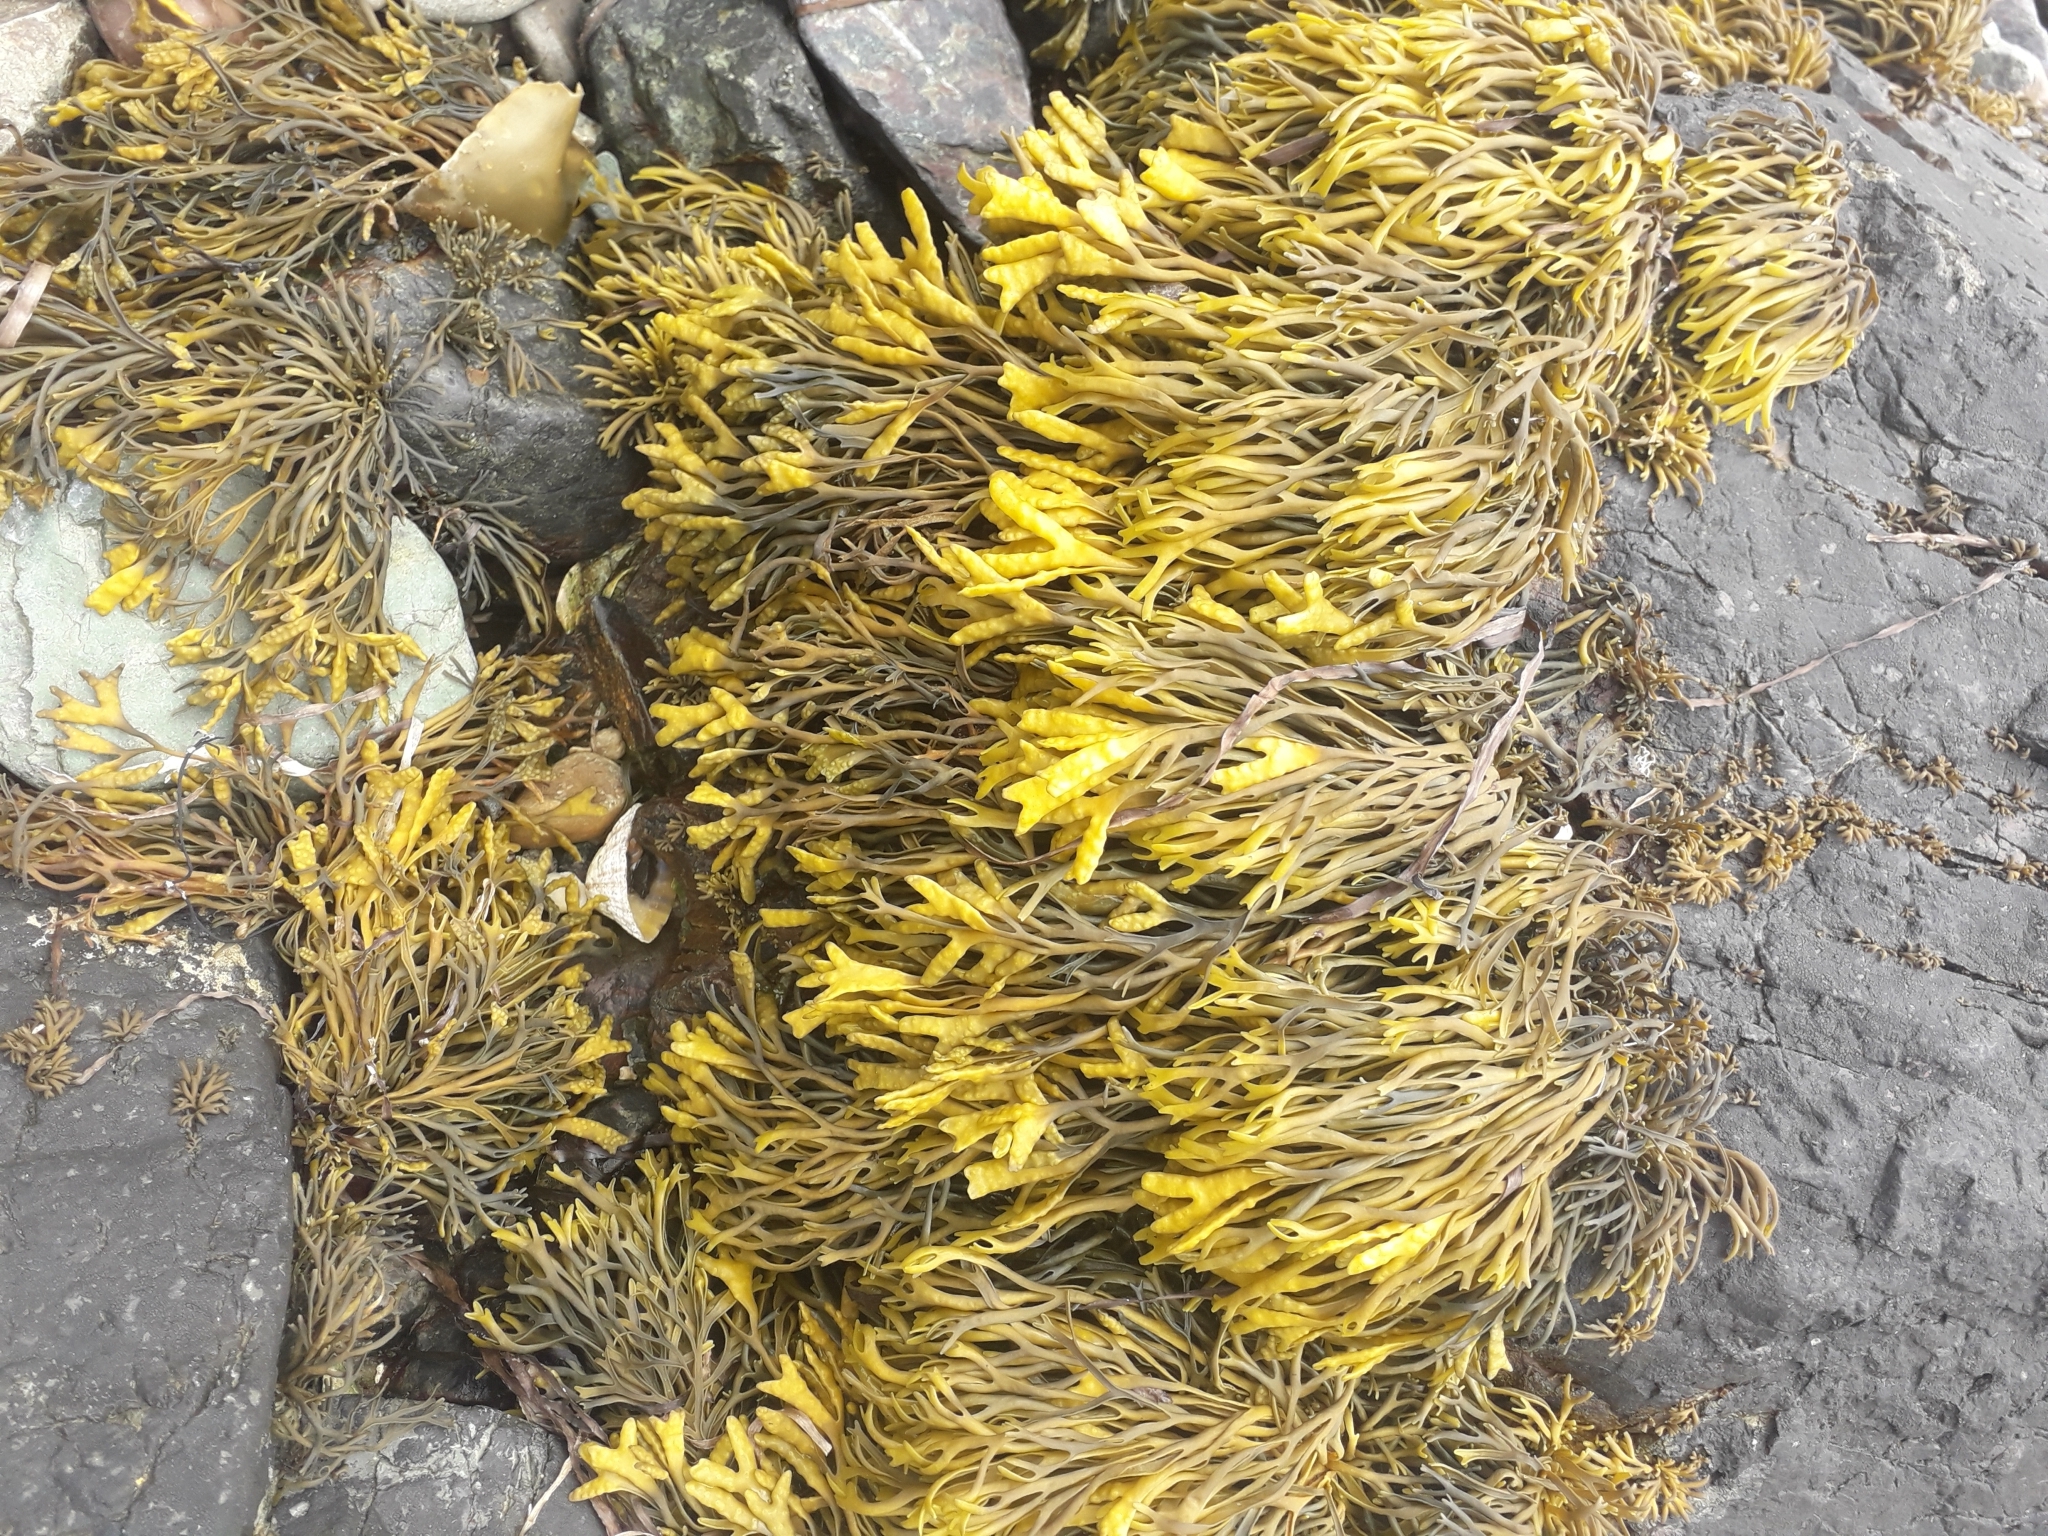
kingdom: Chromista
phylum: Ochrophyta
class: Phaeophyceae
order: Fucales
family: Fucaceae
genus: Pelvetia
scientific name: Pelvetia canaliculata
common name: Channelled wrack
